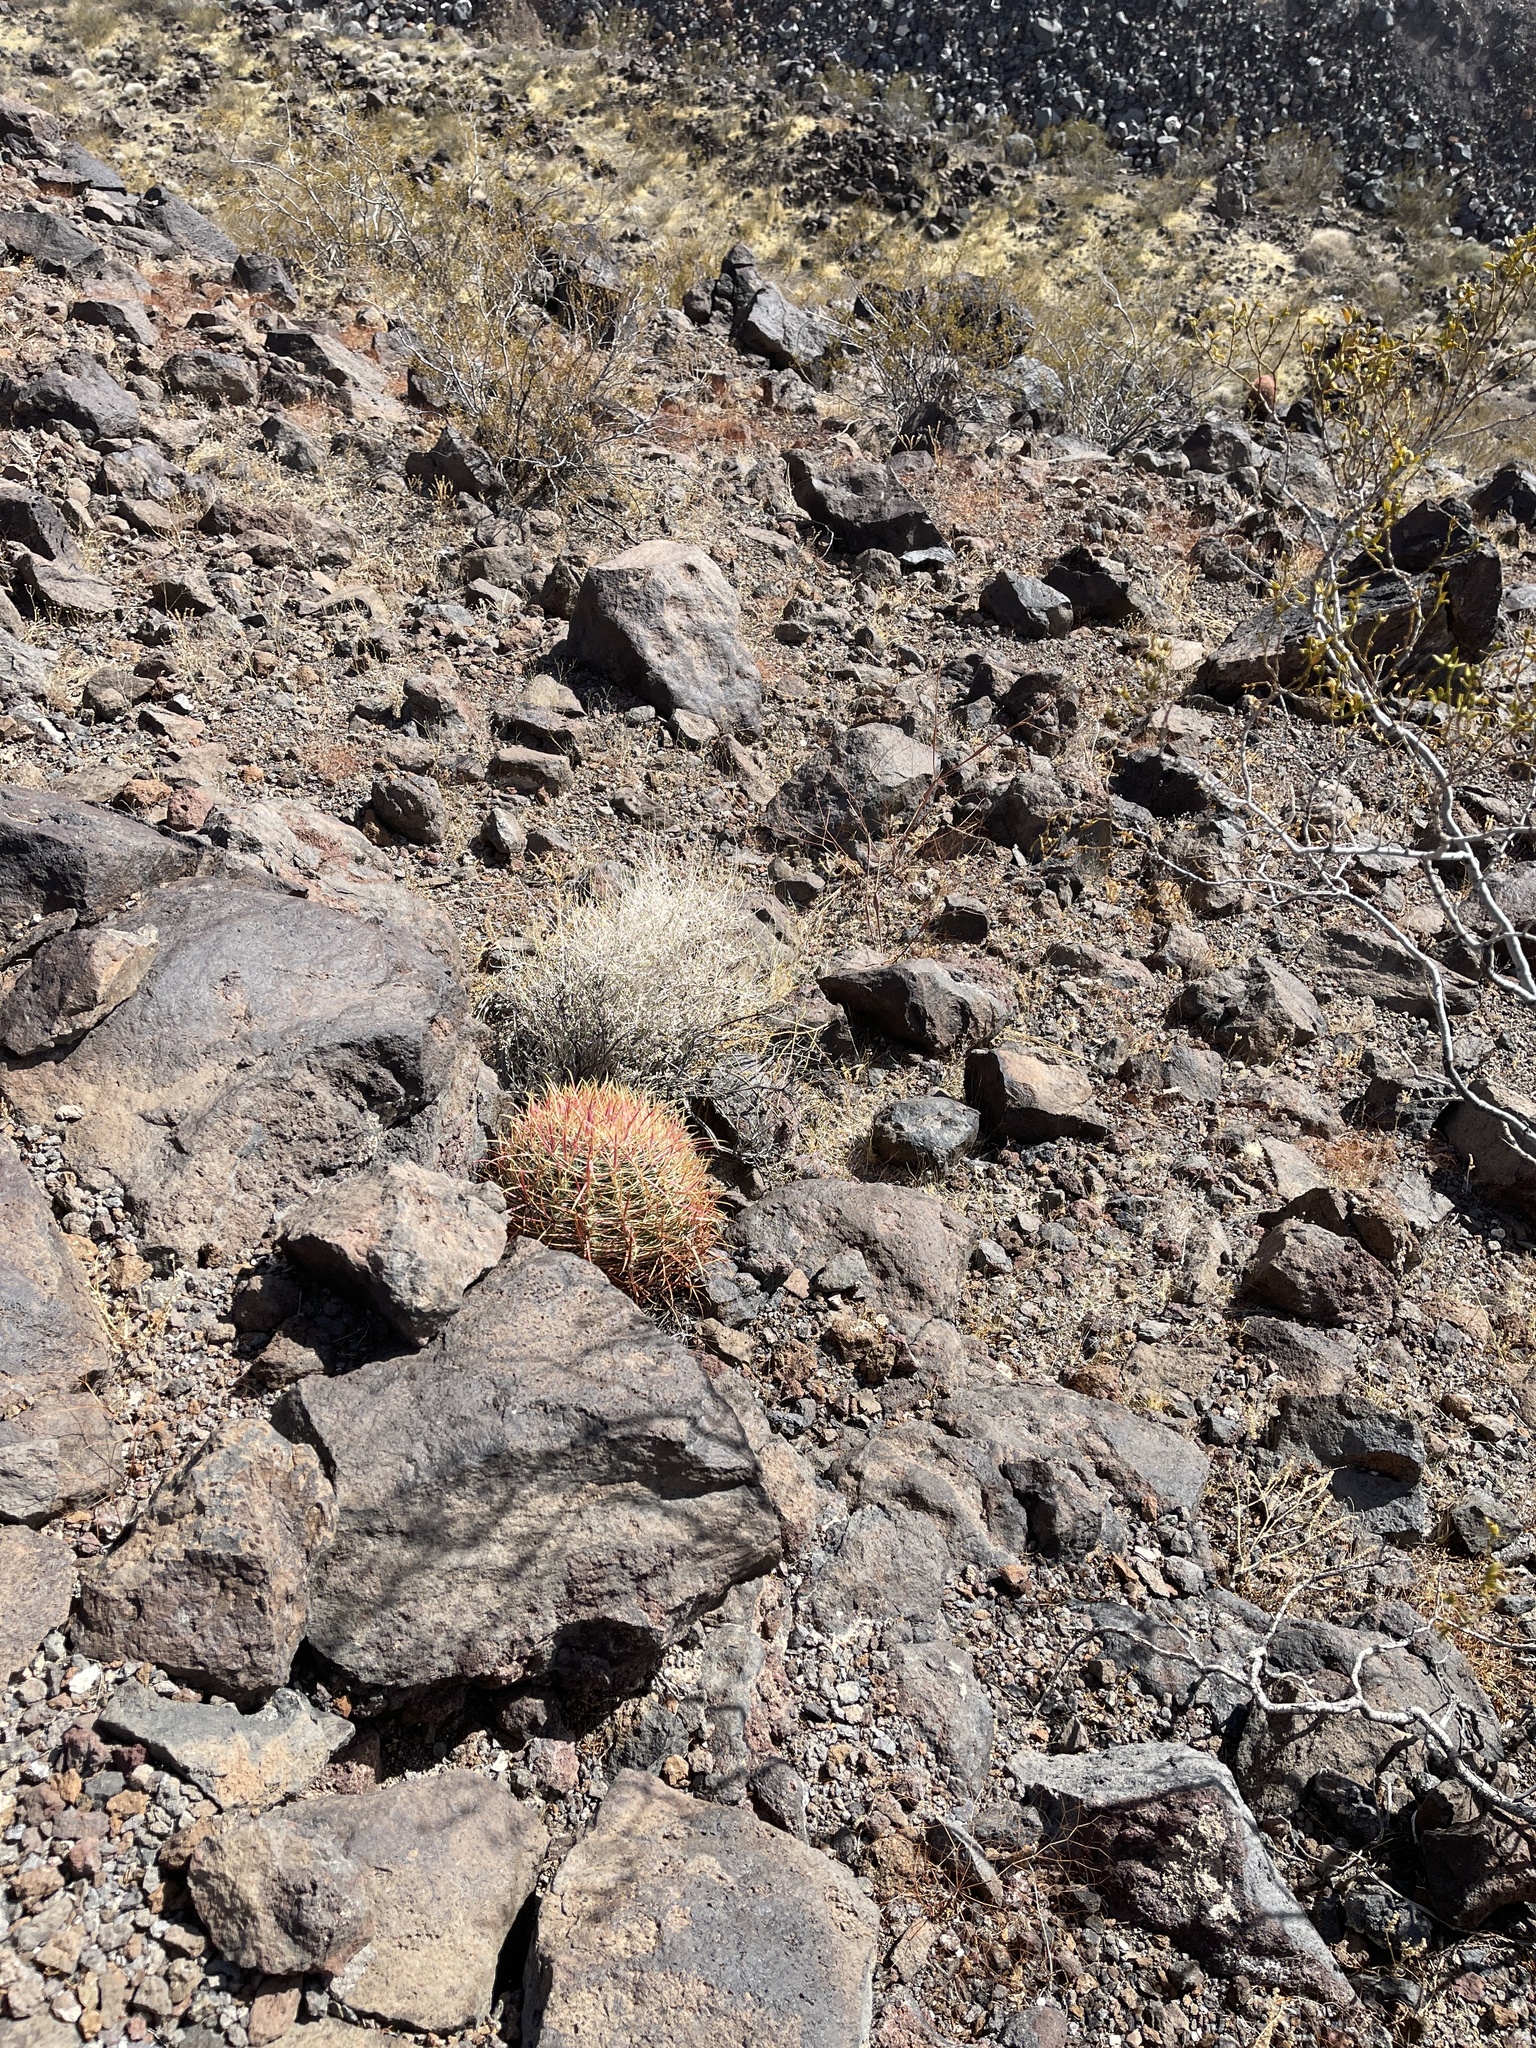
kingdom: Plantae
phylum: Tracheophyta
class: Magnoliopsida
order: Caryophyllales
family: Cactaceae
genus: Ferocactus
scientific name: Ferocactus cylindraceus
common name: California barrel cactus
